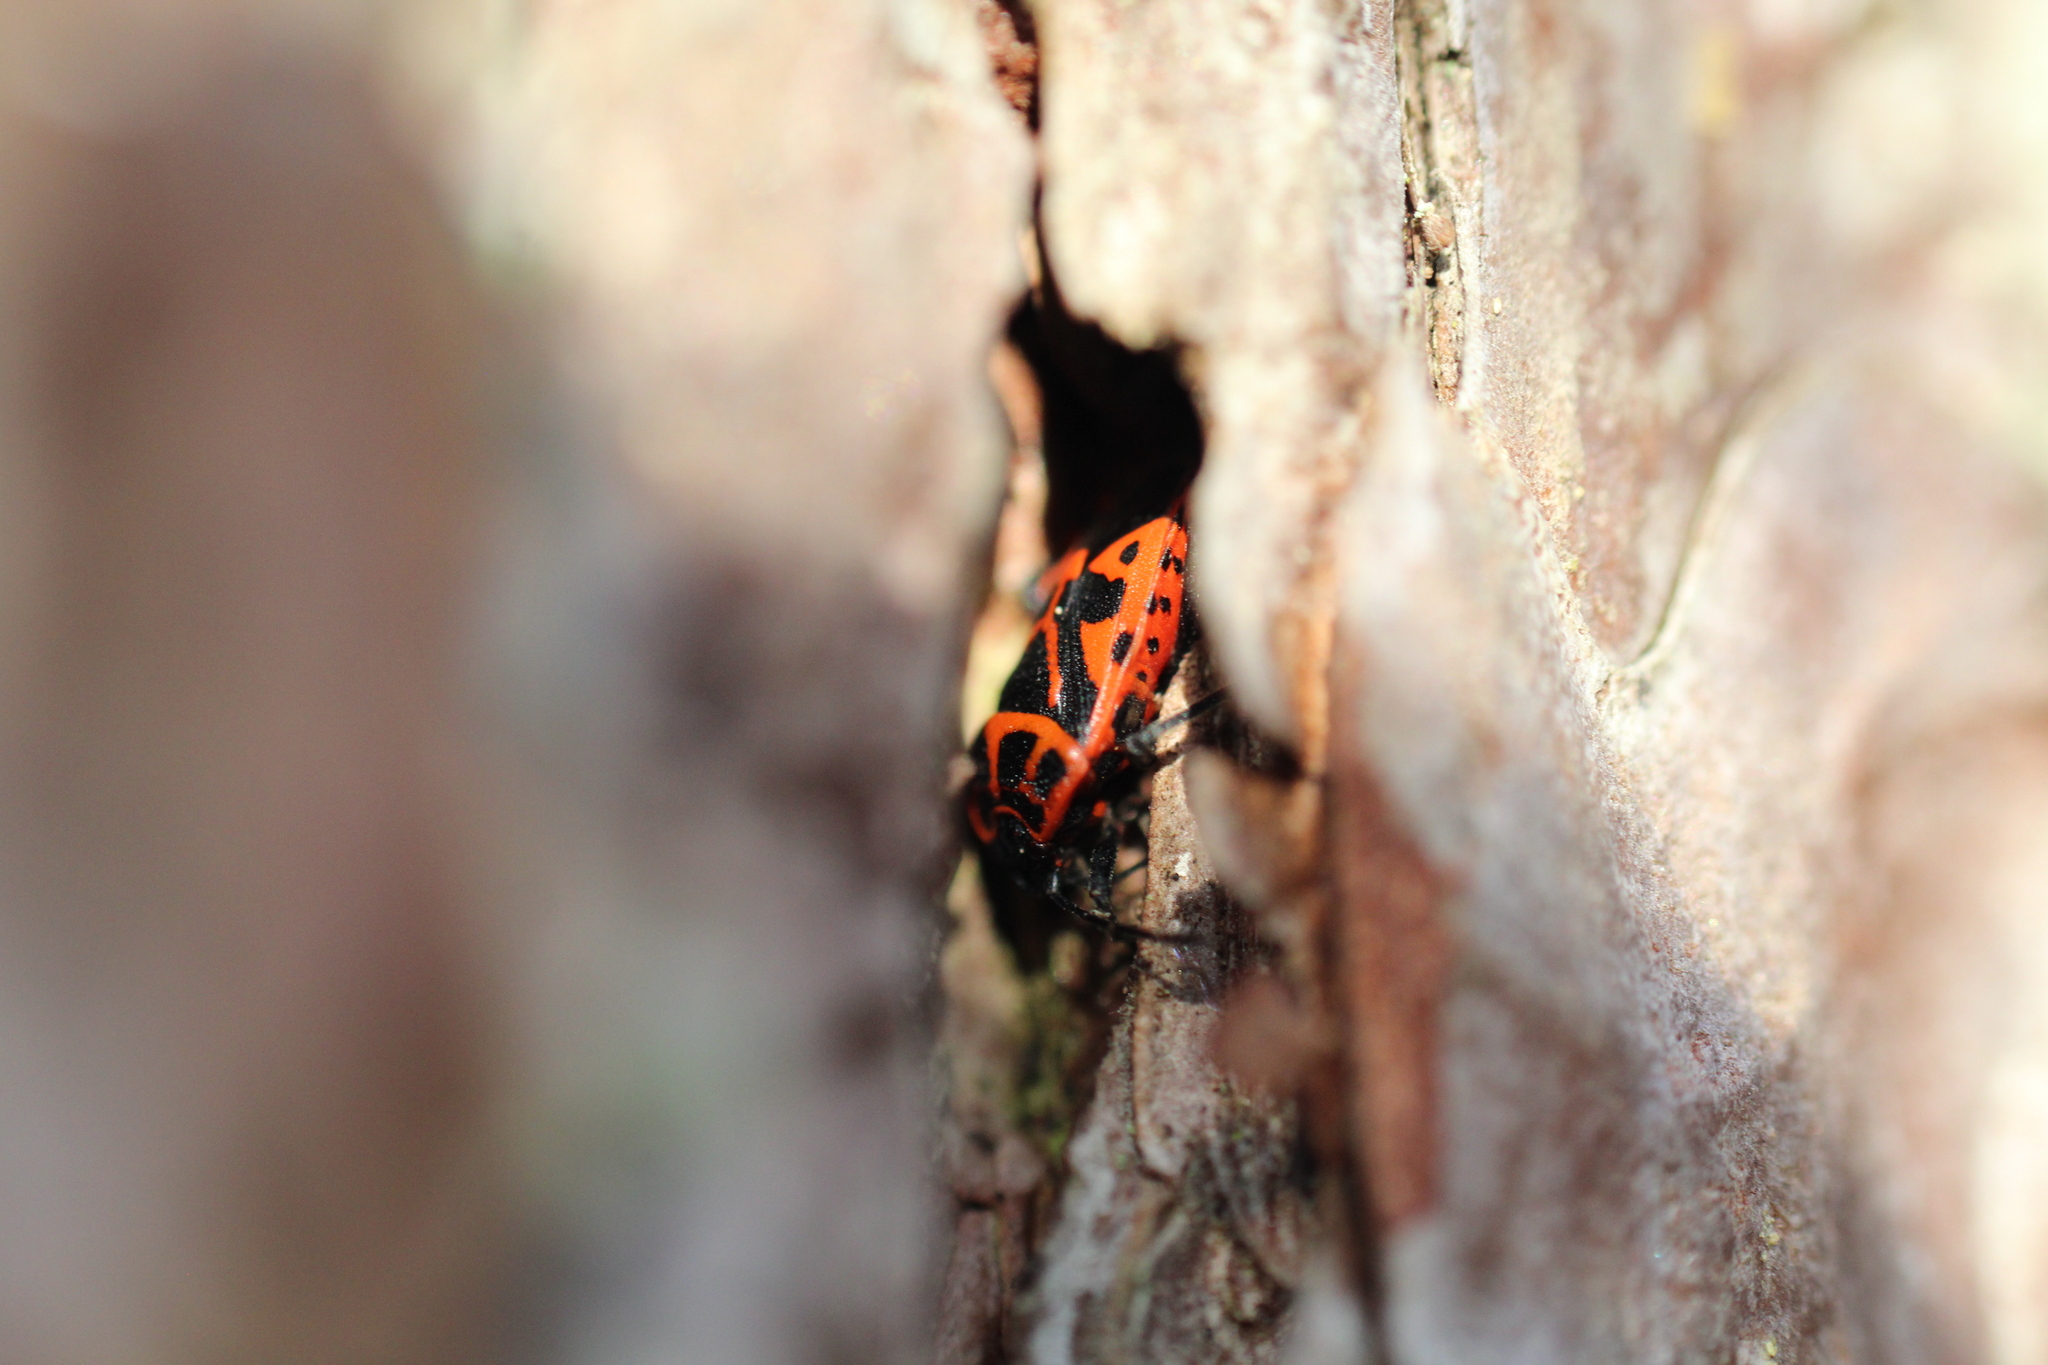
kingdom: Animalia
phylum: Arthropoda
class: Insecta
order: Hemiptera
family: Pentatomidae
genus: Eurydema
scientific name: Eurydema ventralis
